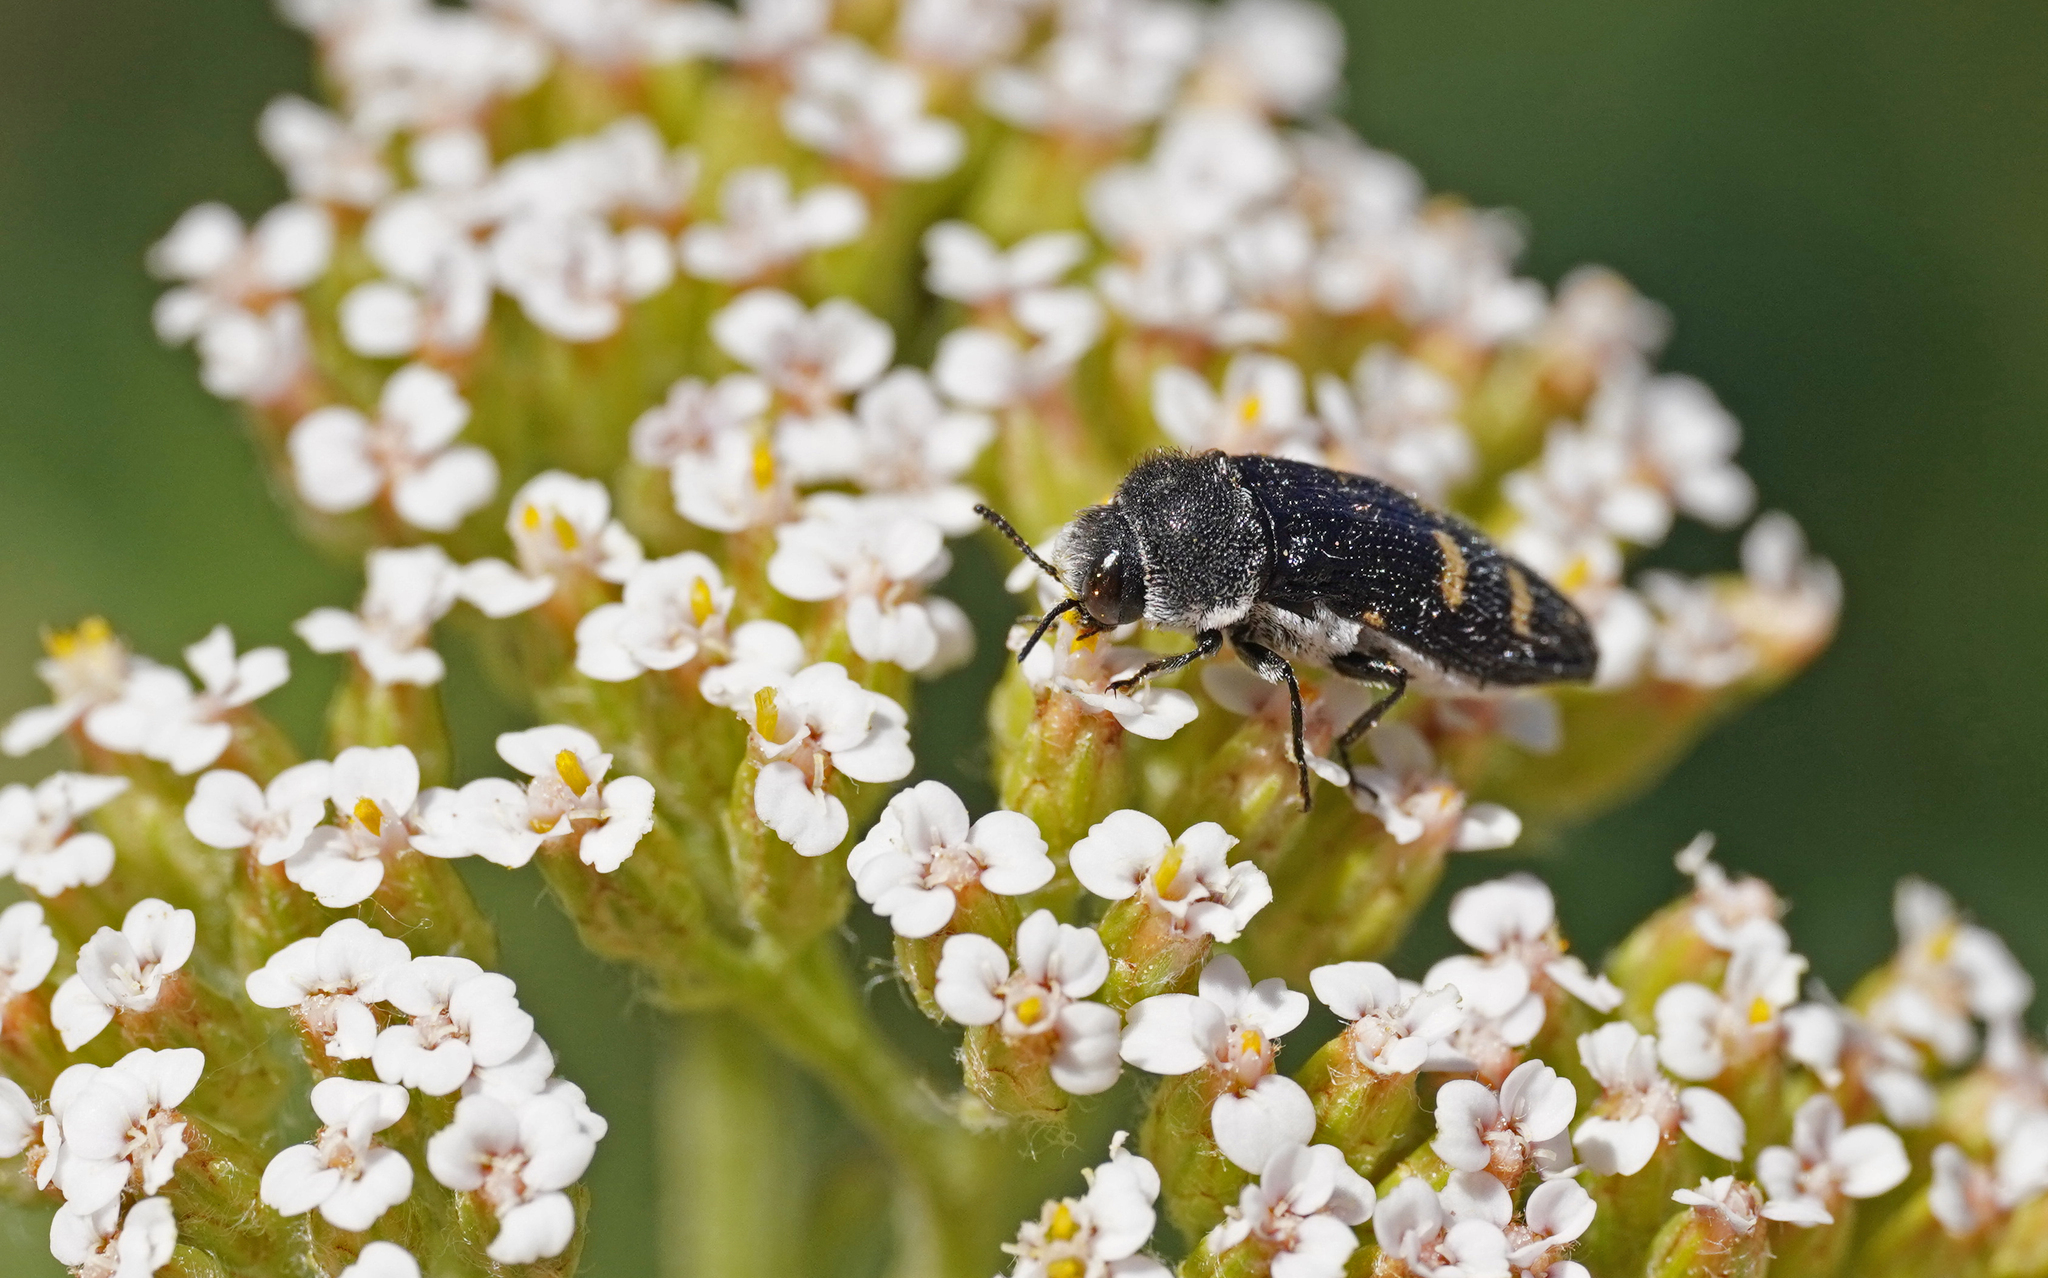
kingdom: Animalia
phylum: Arthropoda
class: Insecta
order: Coleoptera
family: Buprestidae
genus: Acmaeoderella
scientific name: Acmaeoderella flavofasciata
